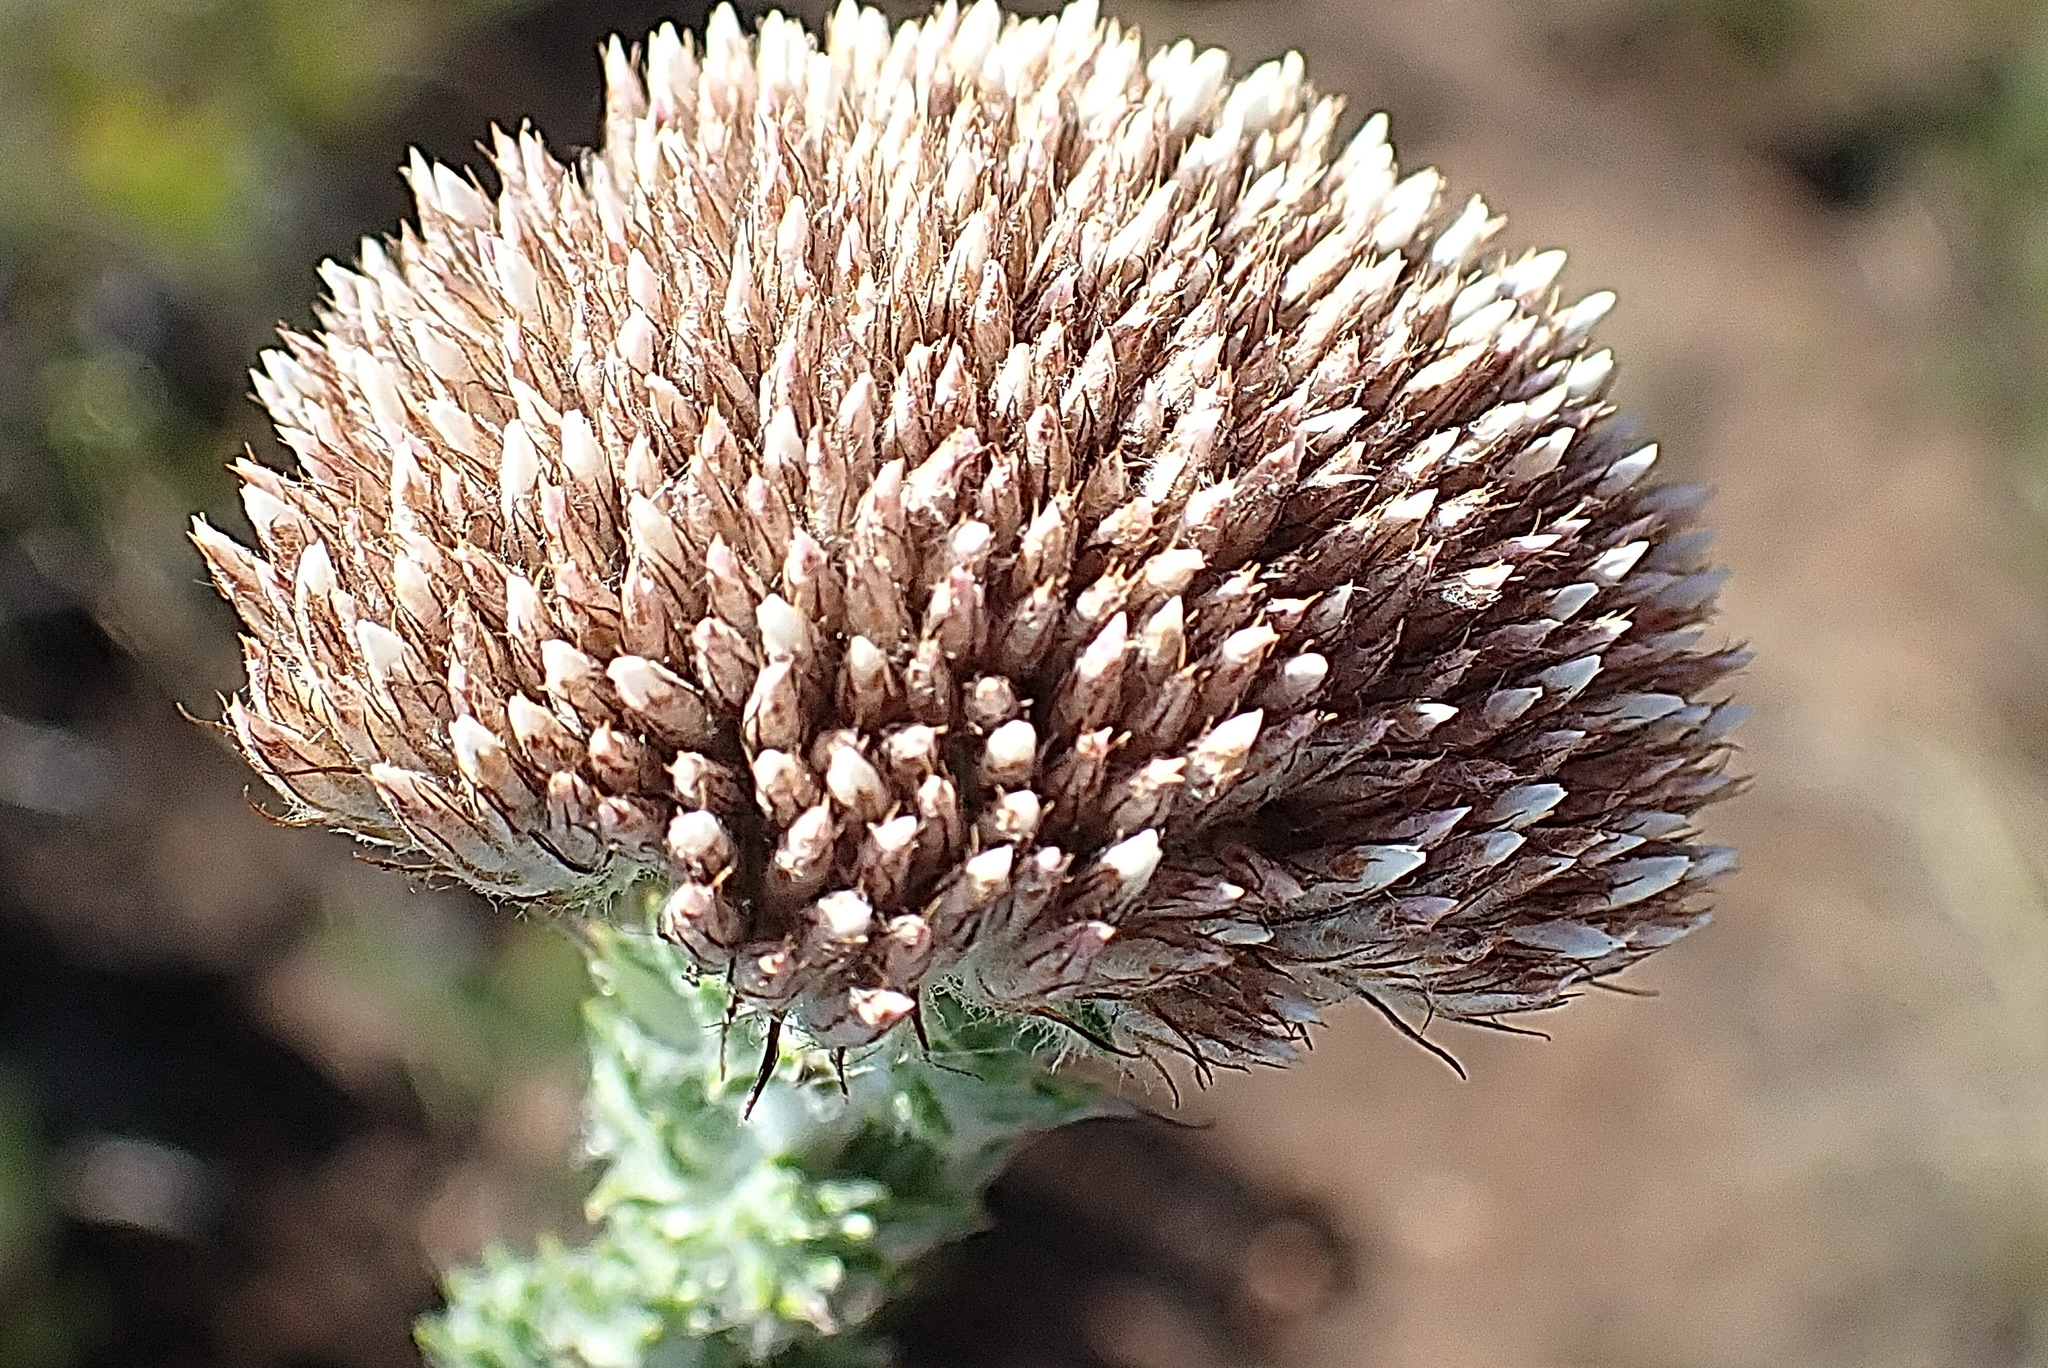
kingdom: Plantae
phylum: Tracheophyta
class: Magnoliopsida
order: Asterales
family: Asteraceae
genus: Metalasia
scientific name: Metalasia pungens
